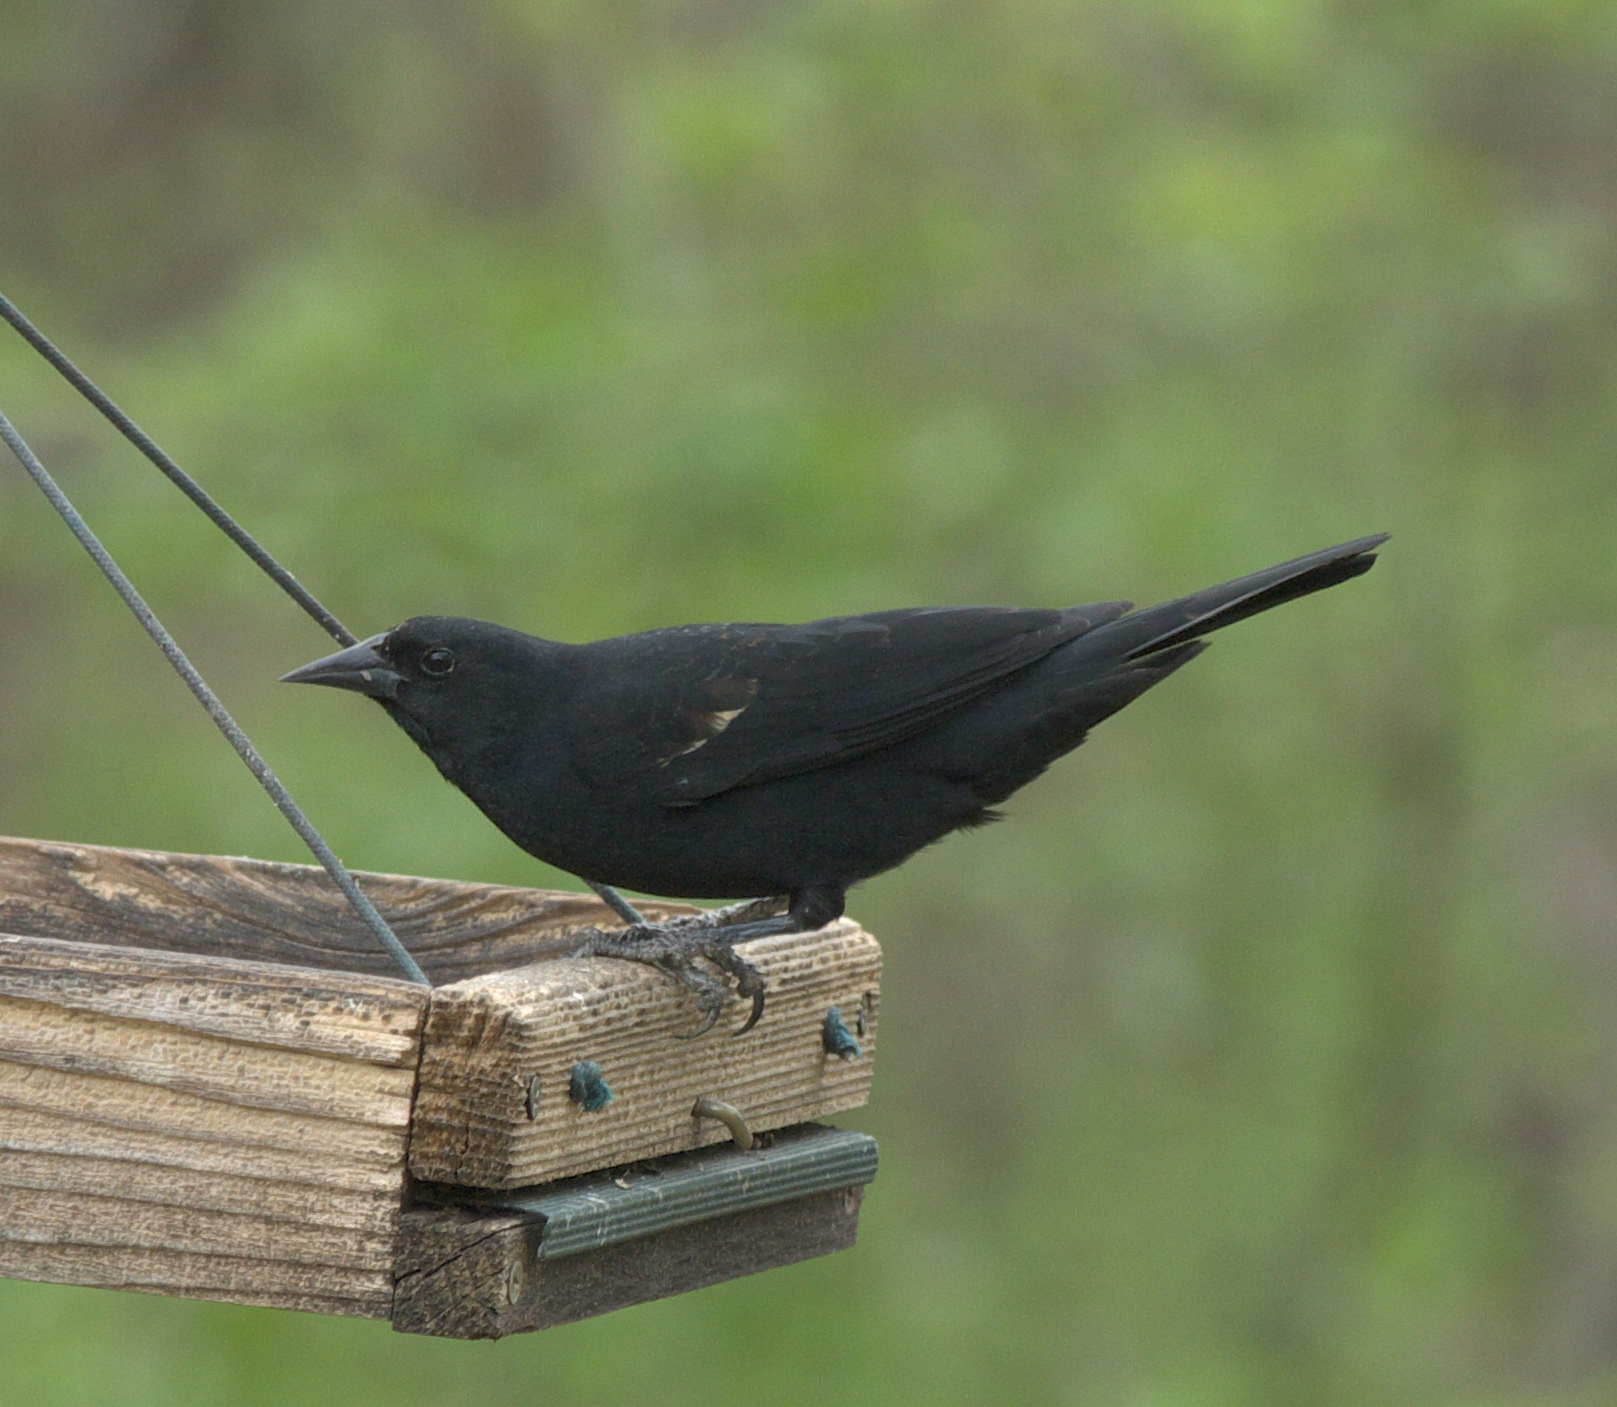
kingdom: Animalia
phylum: Chordata
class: Aves
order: Passeriformes
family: Icteridae
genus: Agelaius
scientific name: Agelaius phoeniceus
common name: Red-winged blackbird
